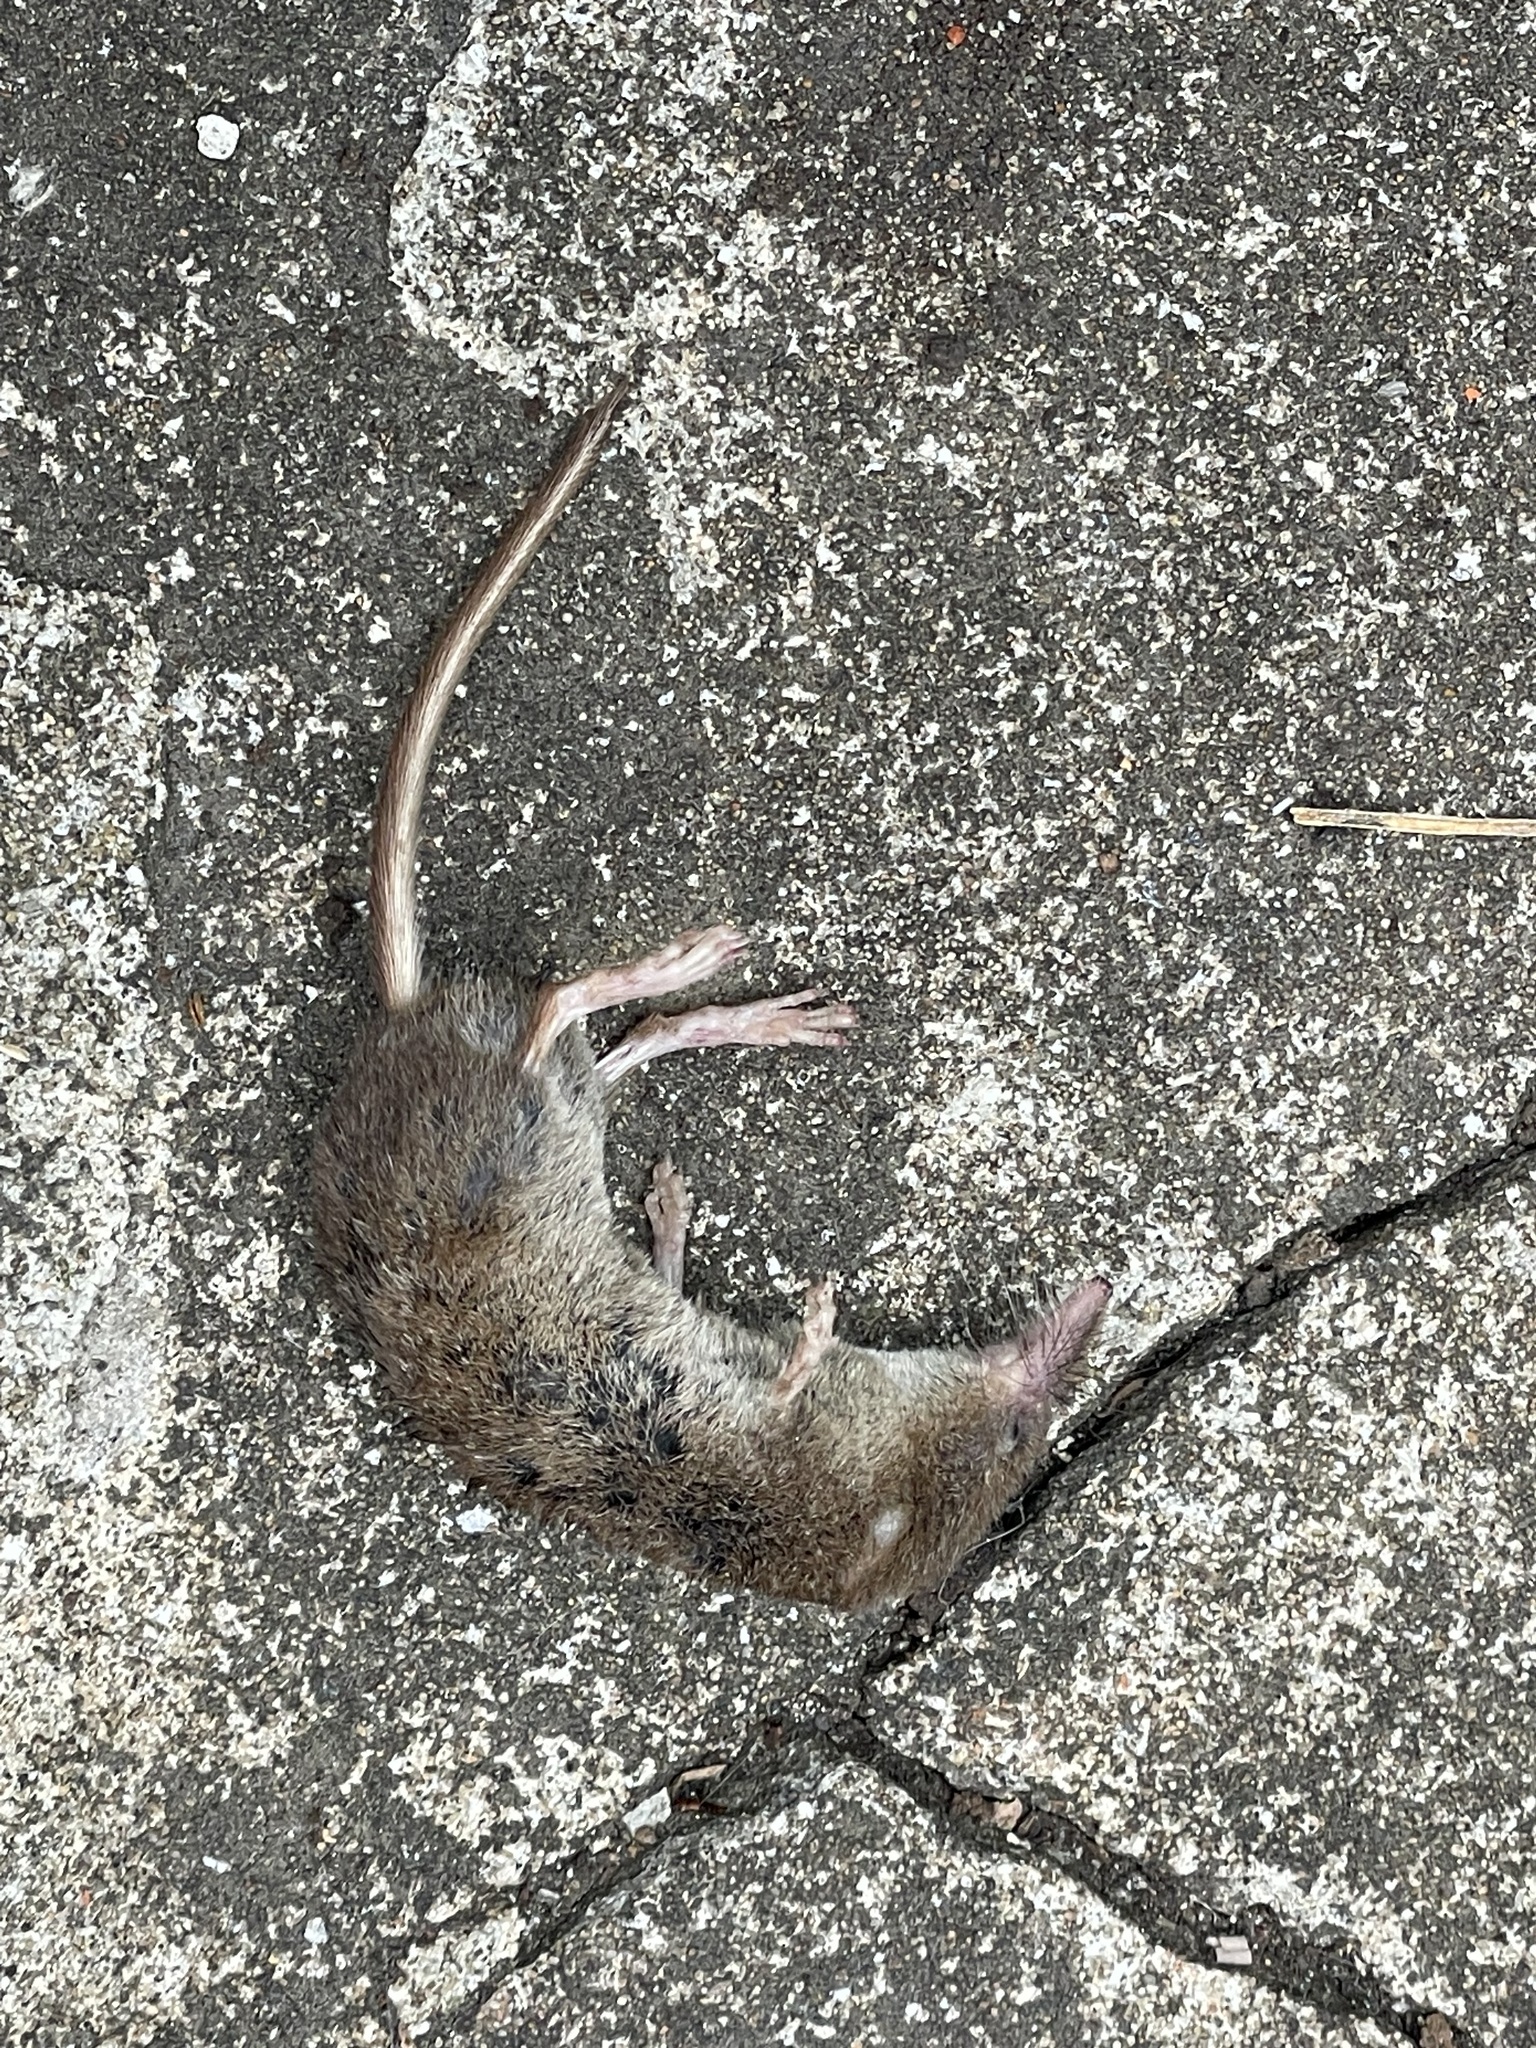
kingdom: Animalia
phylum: Chordata
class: Mammalia
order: Soricomorpha
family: Soricidae
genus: Sorex
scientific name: Sorex araneus
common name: Common shrew
